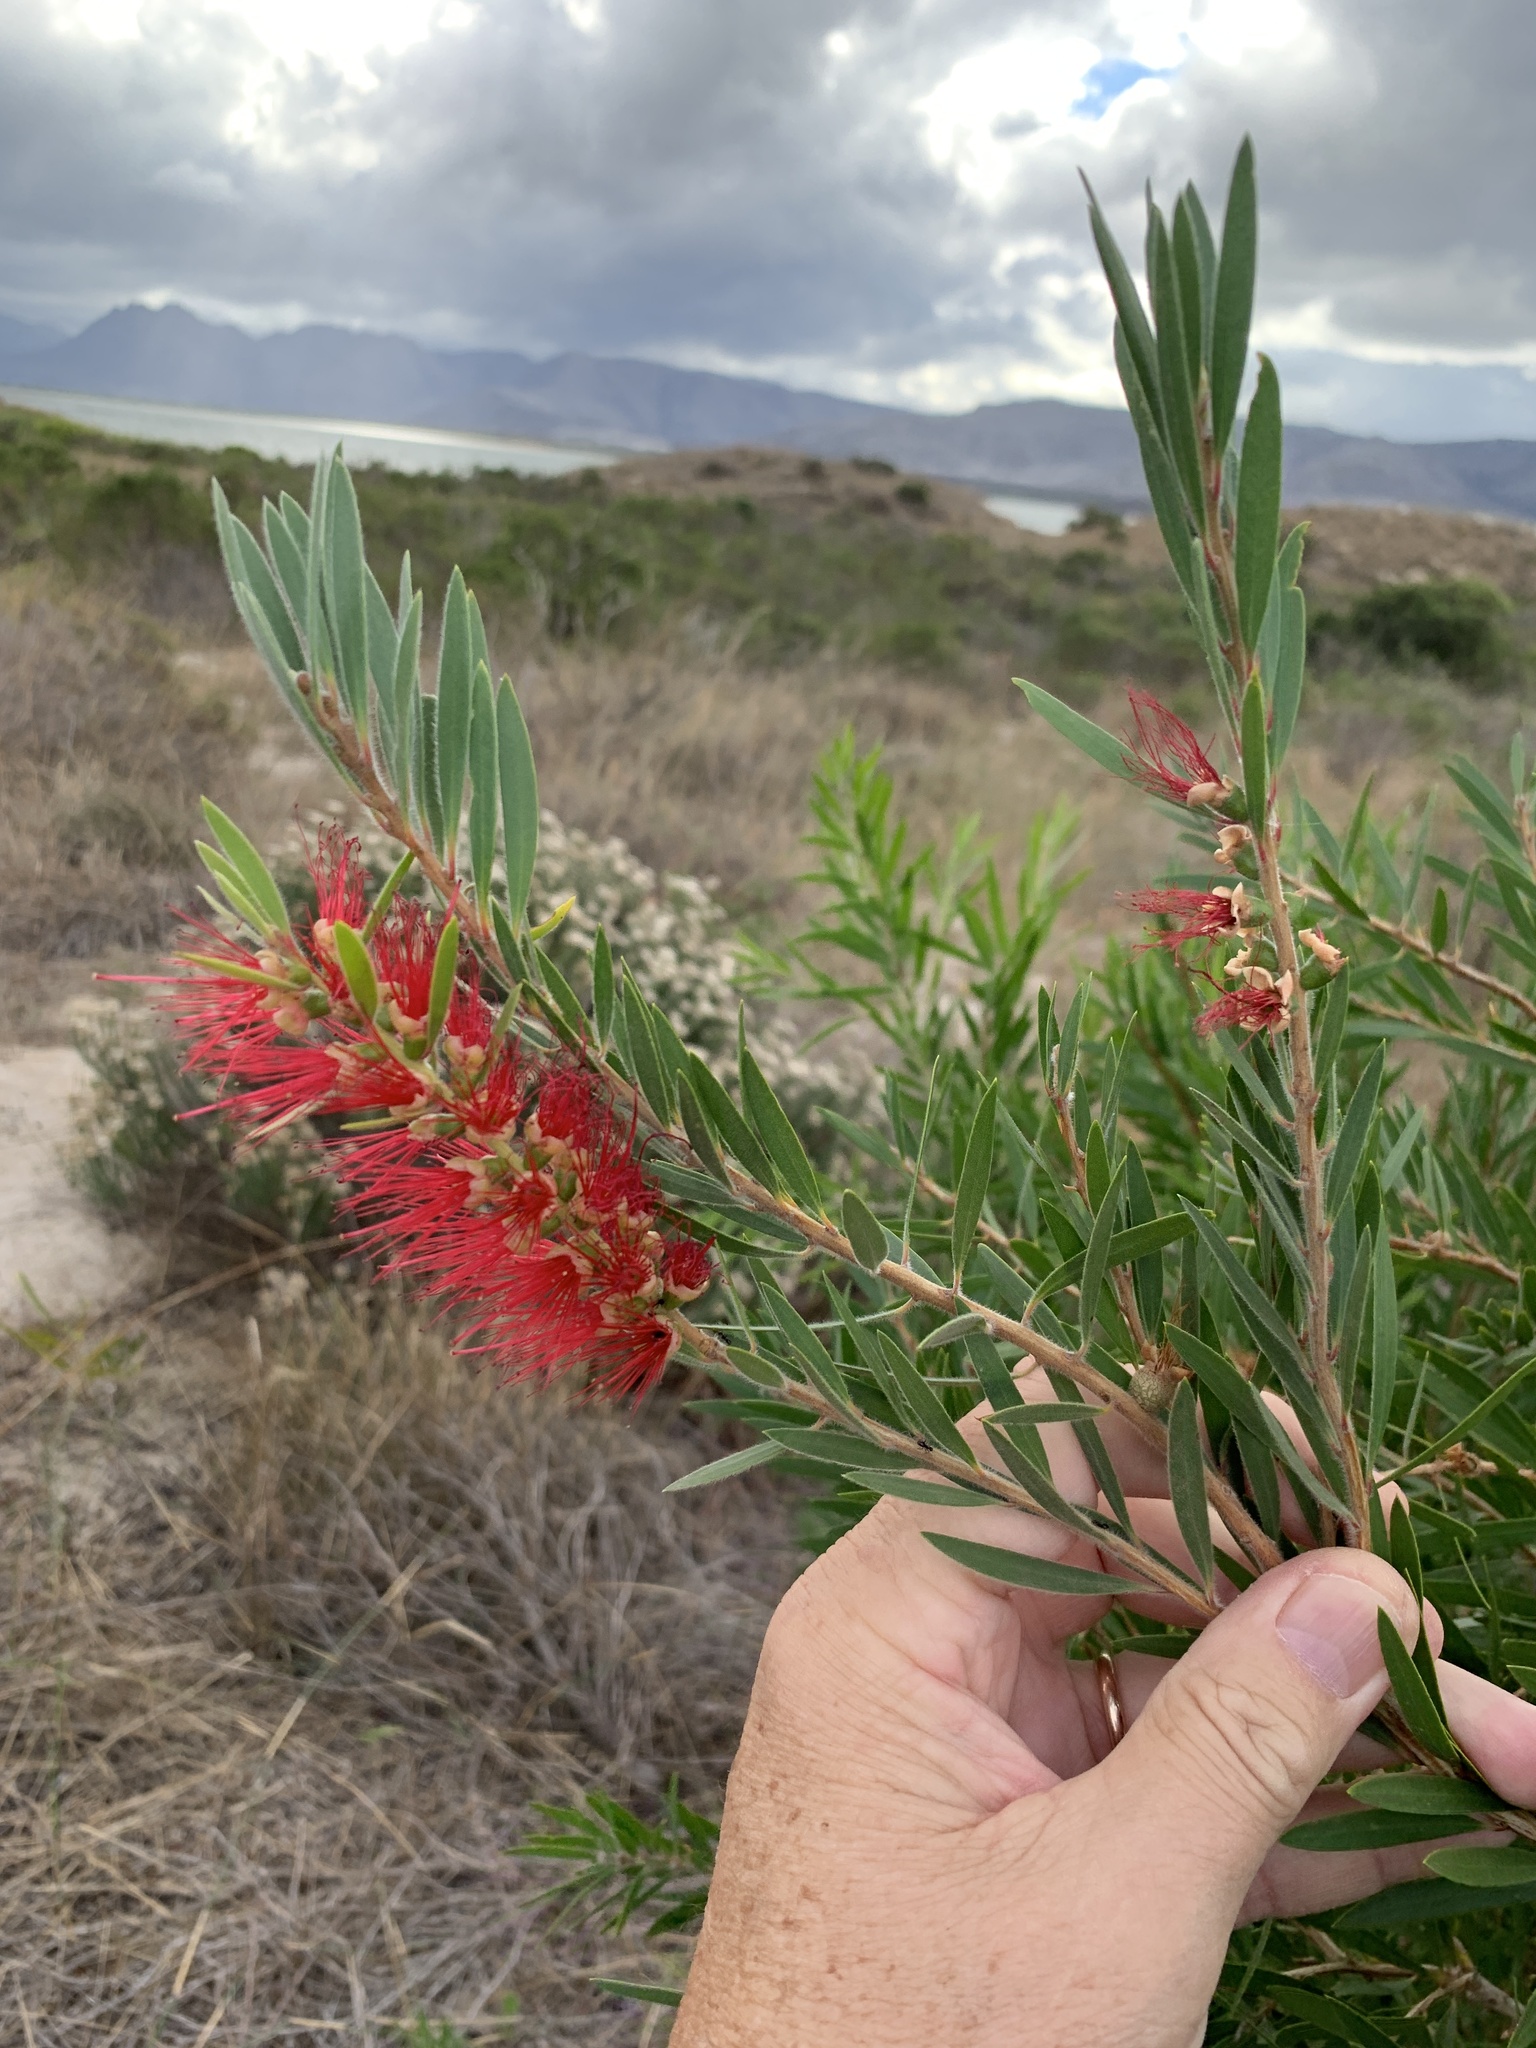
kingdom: Plantae
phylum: Tracheophyta
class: Magnoliopsida
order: Myrtales
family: Myrtaceae
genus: Callistemon
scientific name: Callistemon viminalis
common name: Drooping bottlebrush
